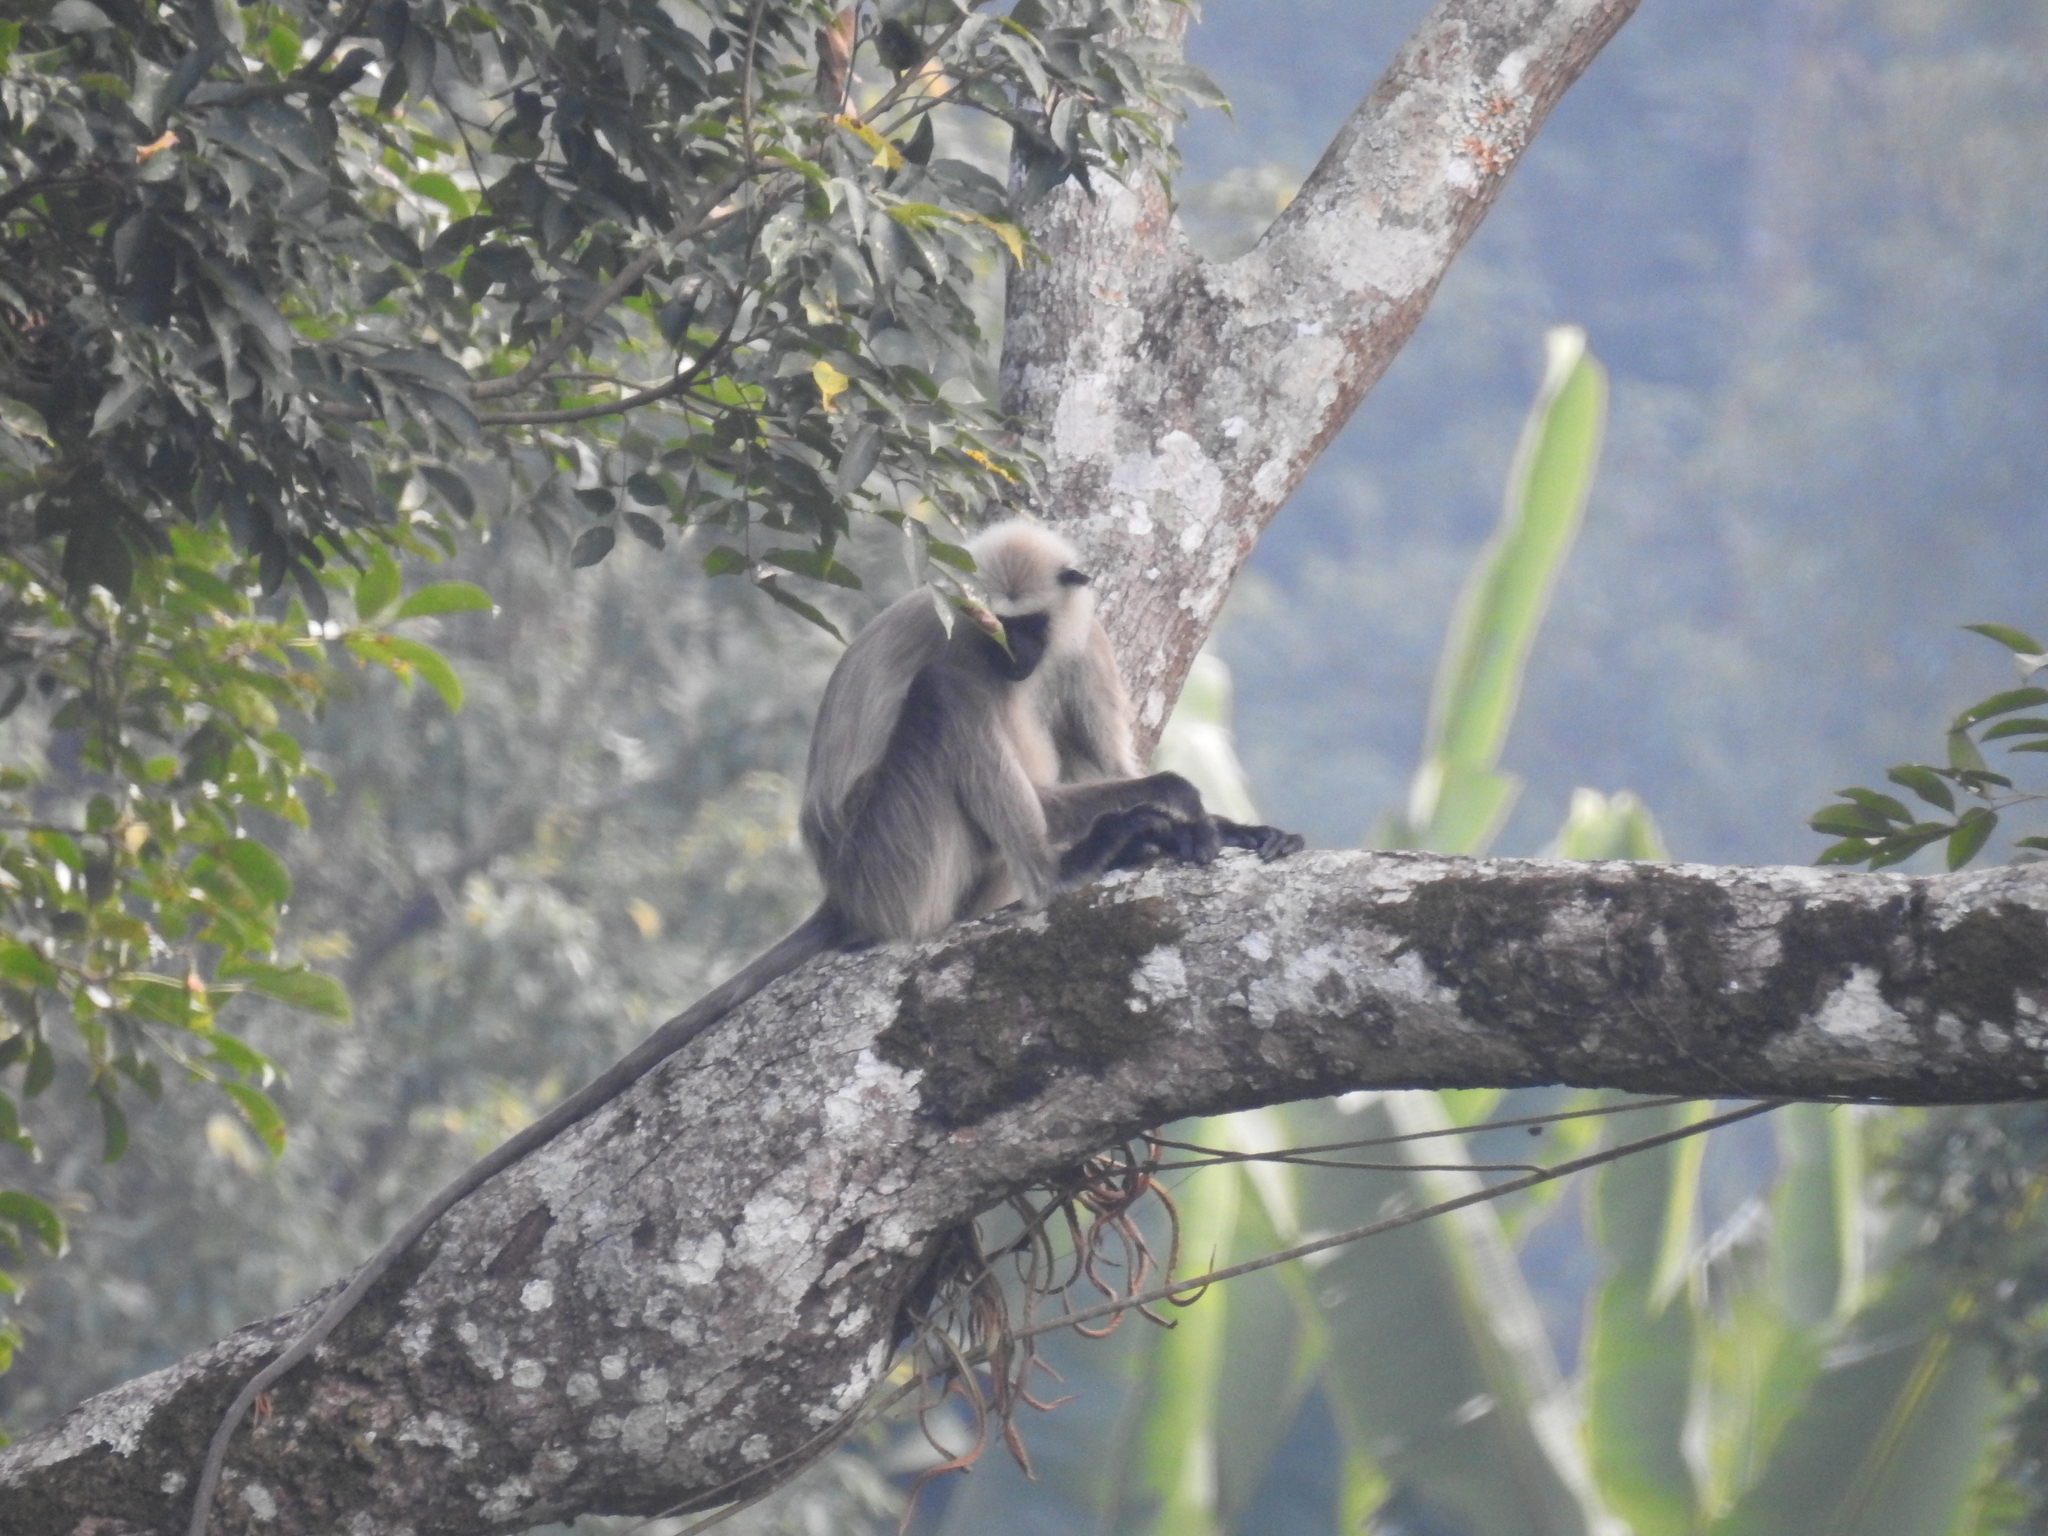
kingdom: Animalia
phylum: Chordata
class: Mammalia
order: Primates
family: Cercopithecidae
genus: Semnopithecus
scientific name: Semnopithecus entellus
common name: Northern plains gray langur
